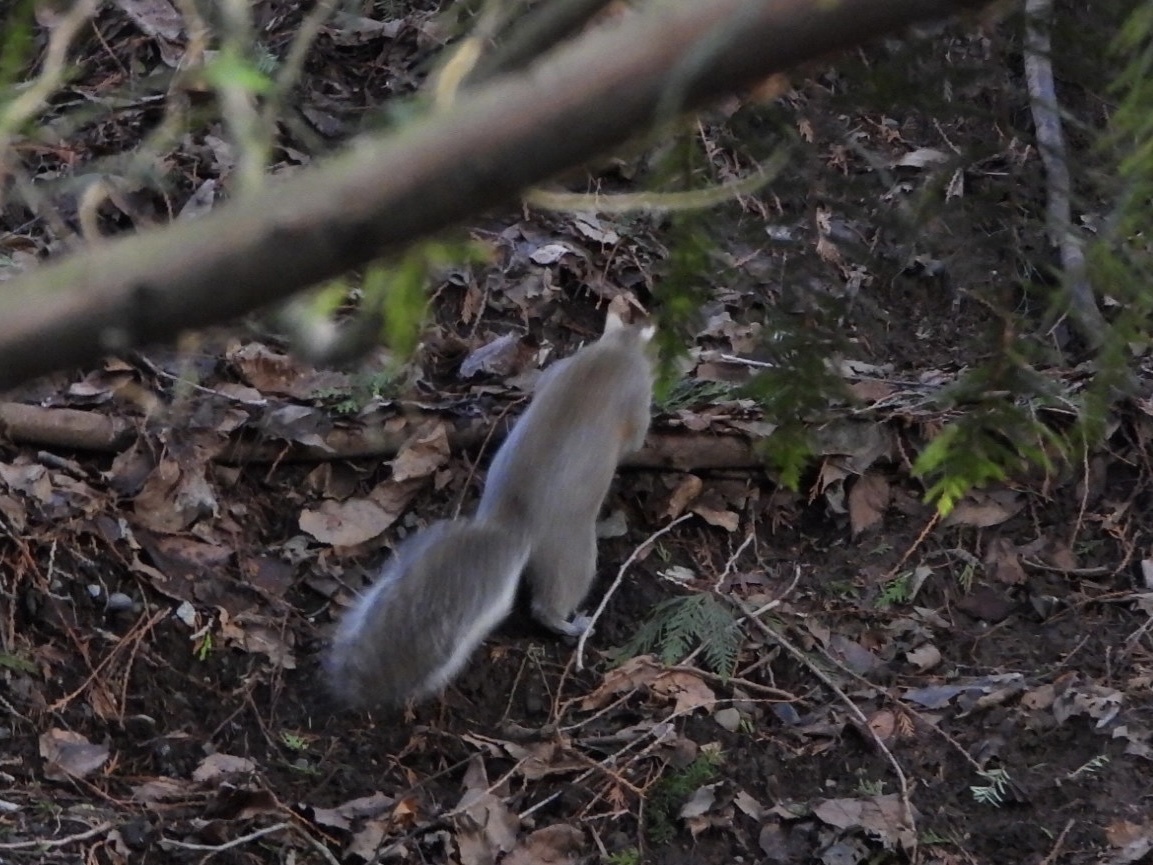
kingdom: Animalia
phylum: Chordata
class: Mammalia
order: Rodentia
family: Sciuridae
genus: Sciurus
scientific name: Sciurus carolinensis
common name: Eastern gray squirrel
